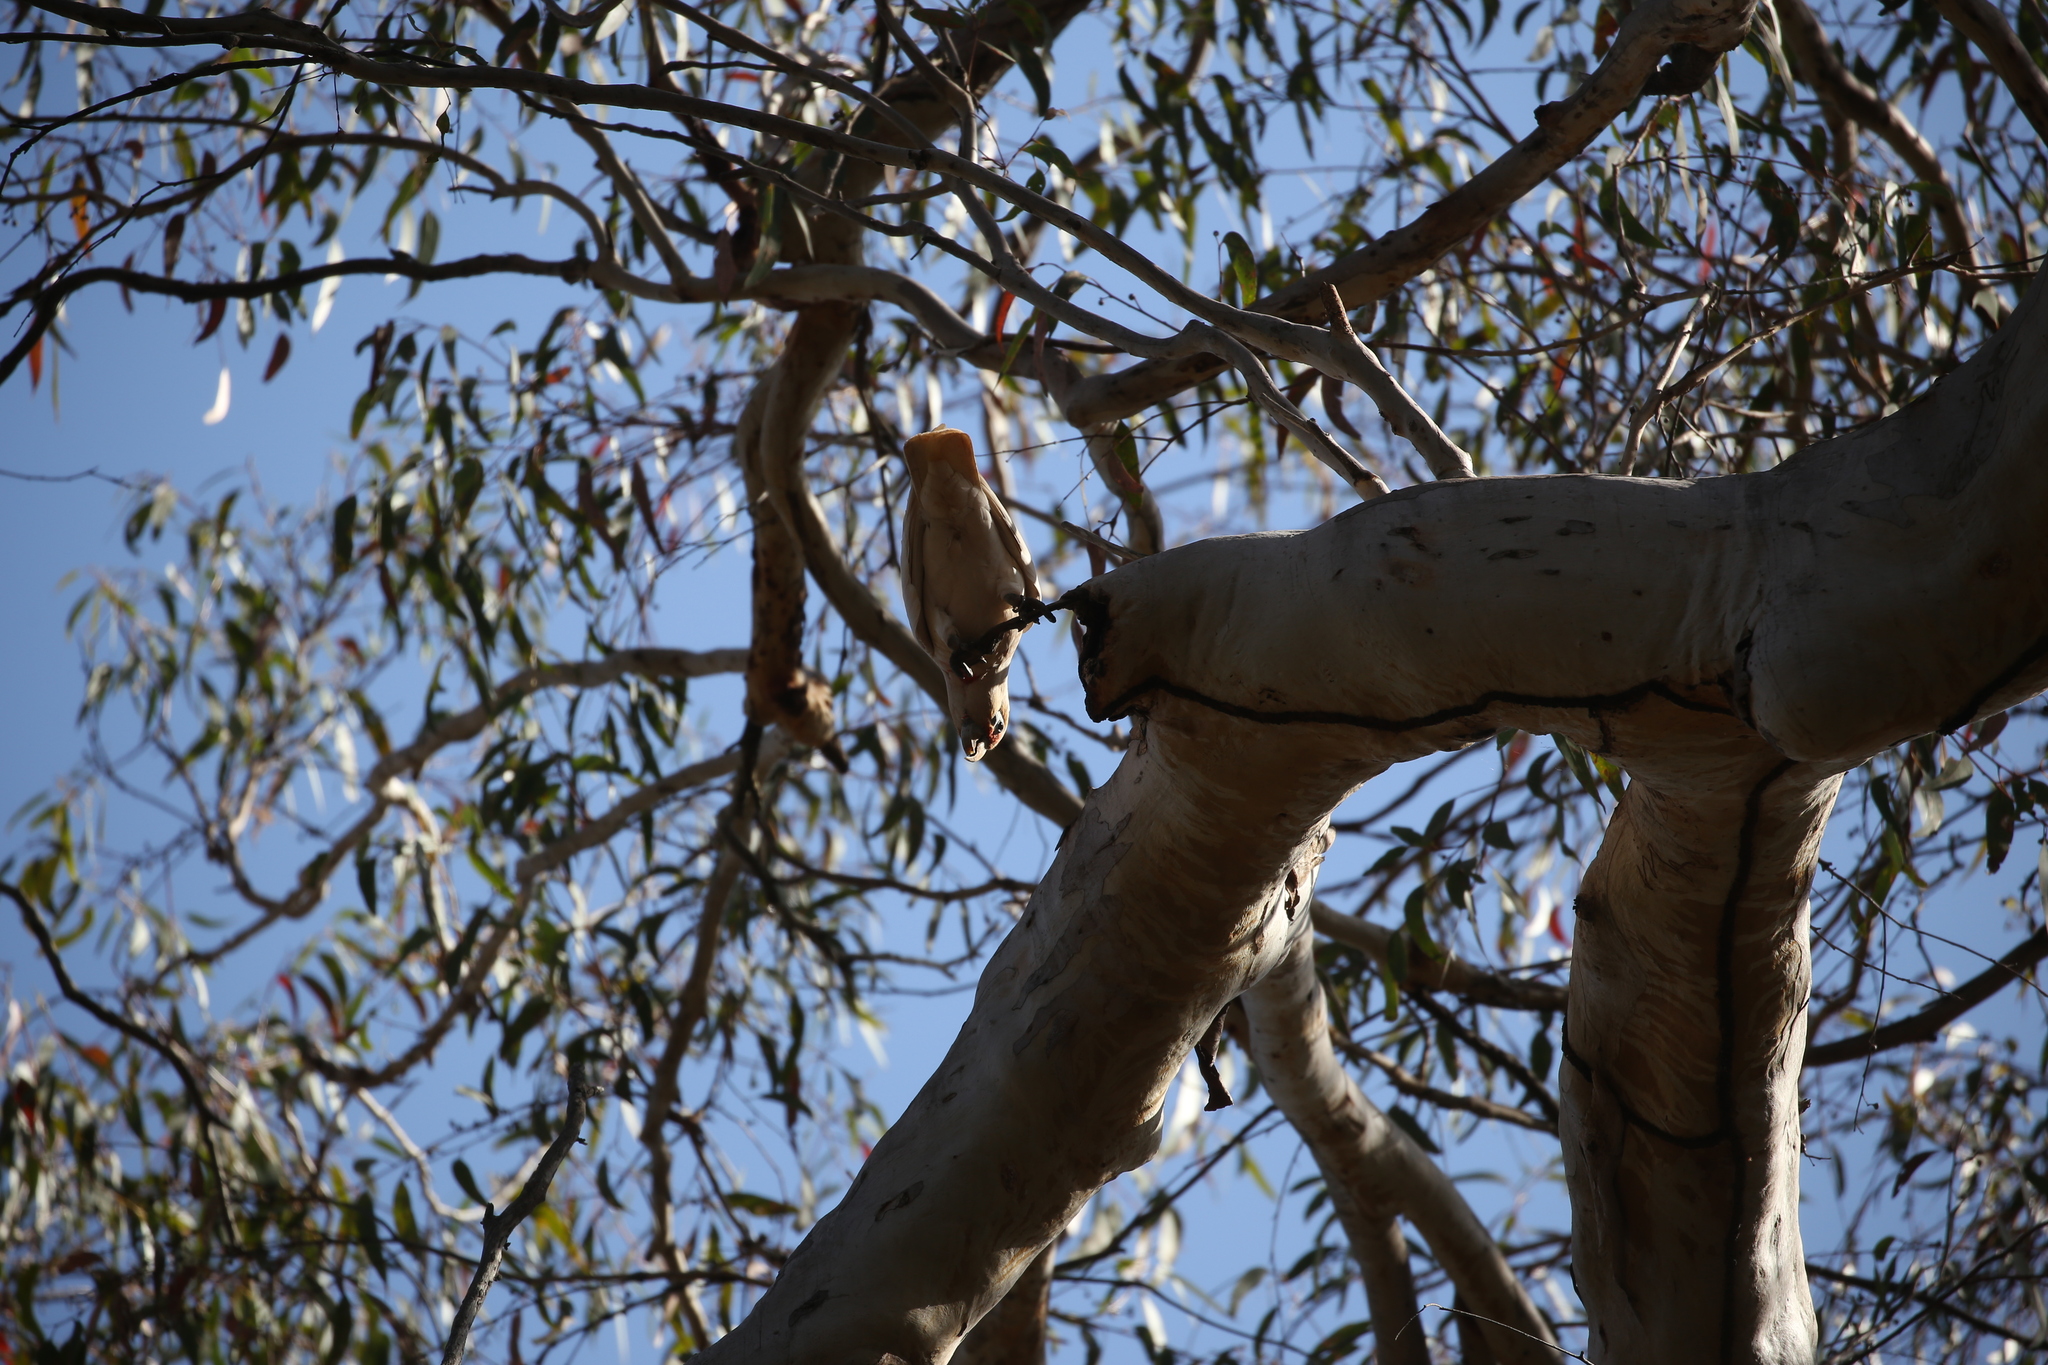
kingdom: Animalia
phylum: Chordata
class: Aves
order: Psittaciformes
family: Psittacidae
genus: Cacatua
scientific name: Cacatua tenuirostris
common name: Long-billed corella
